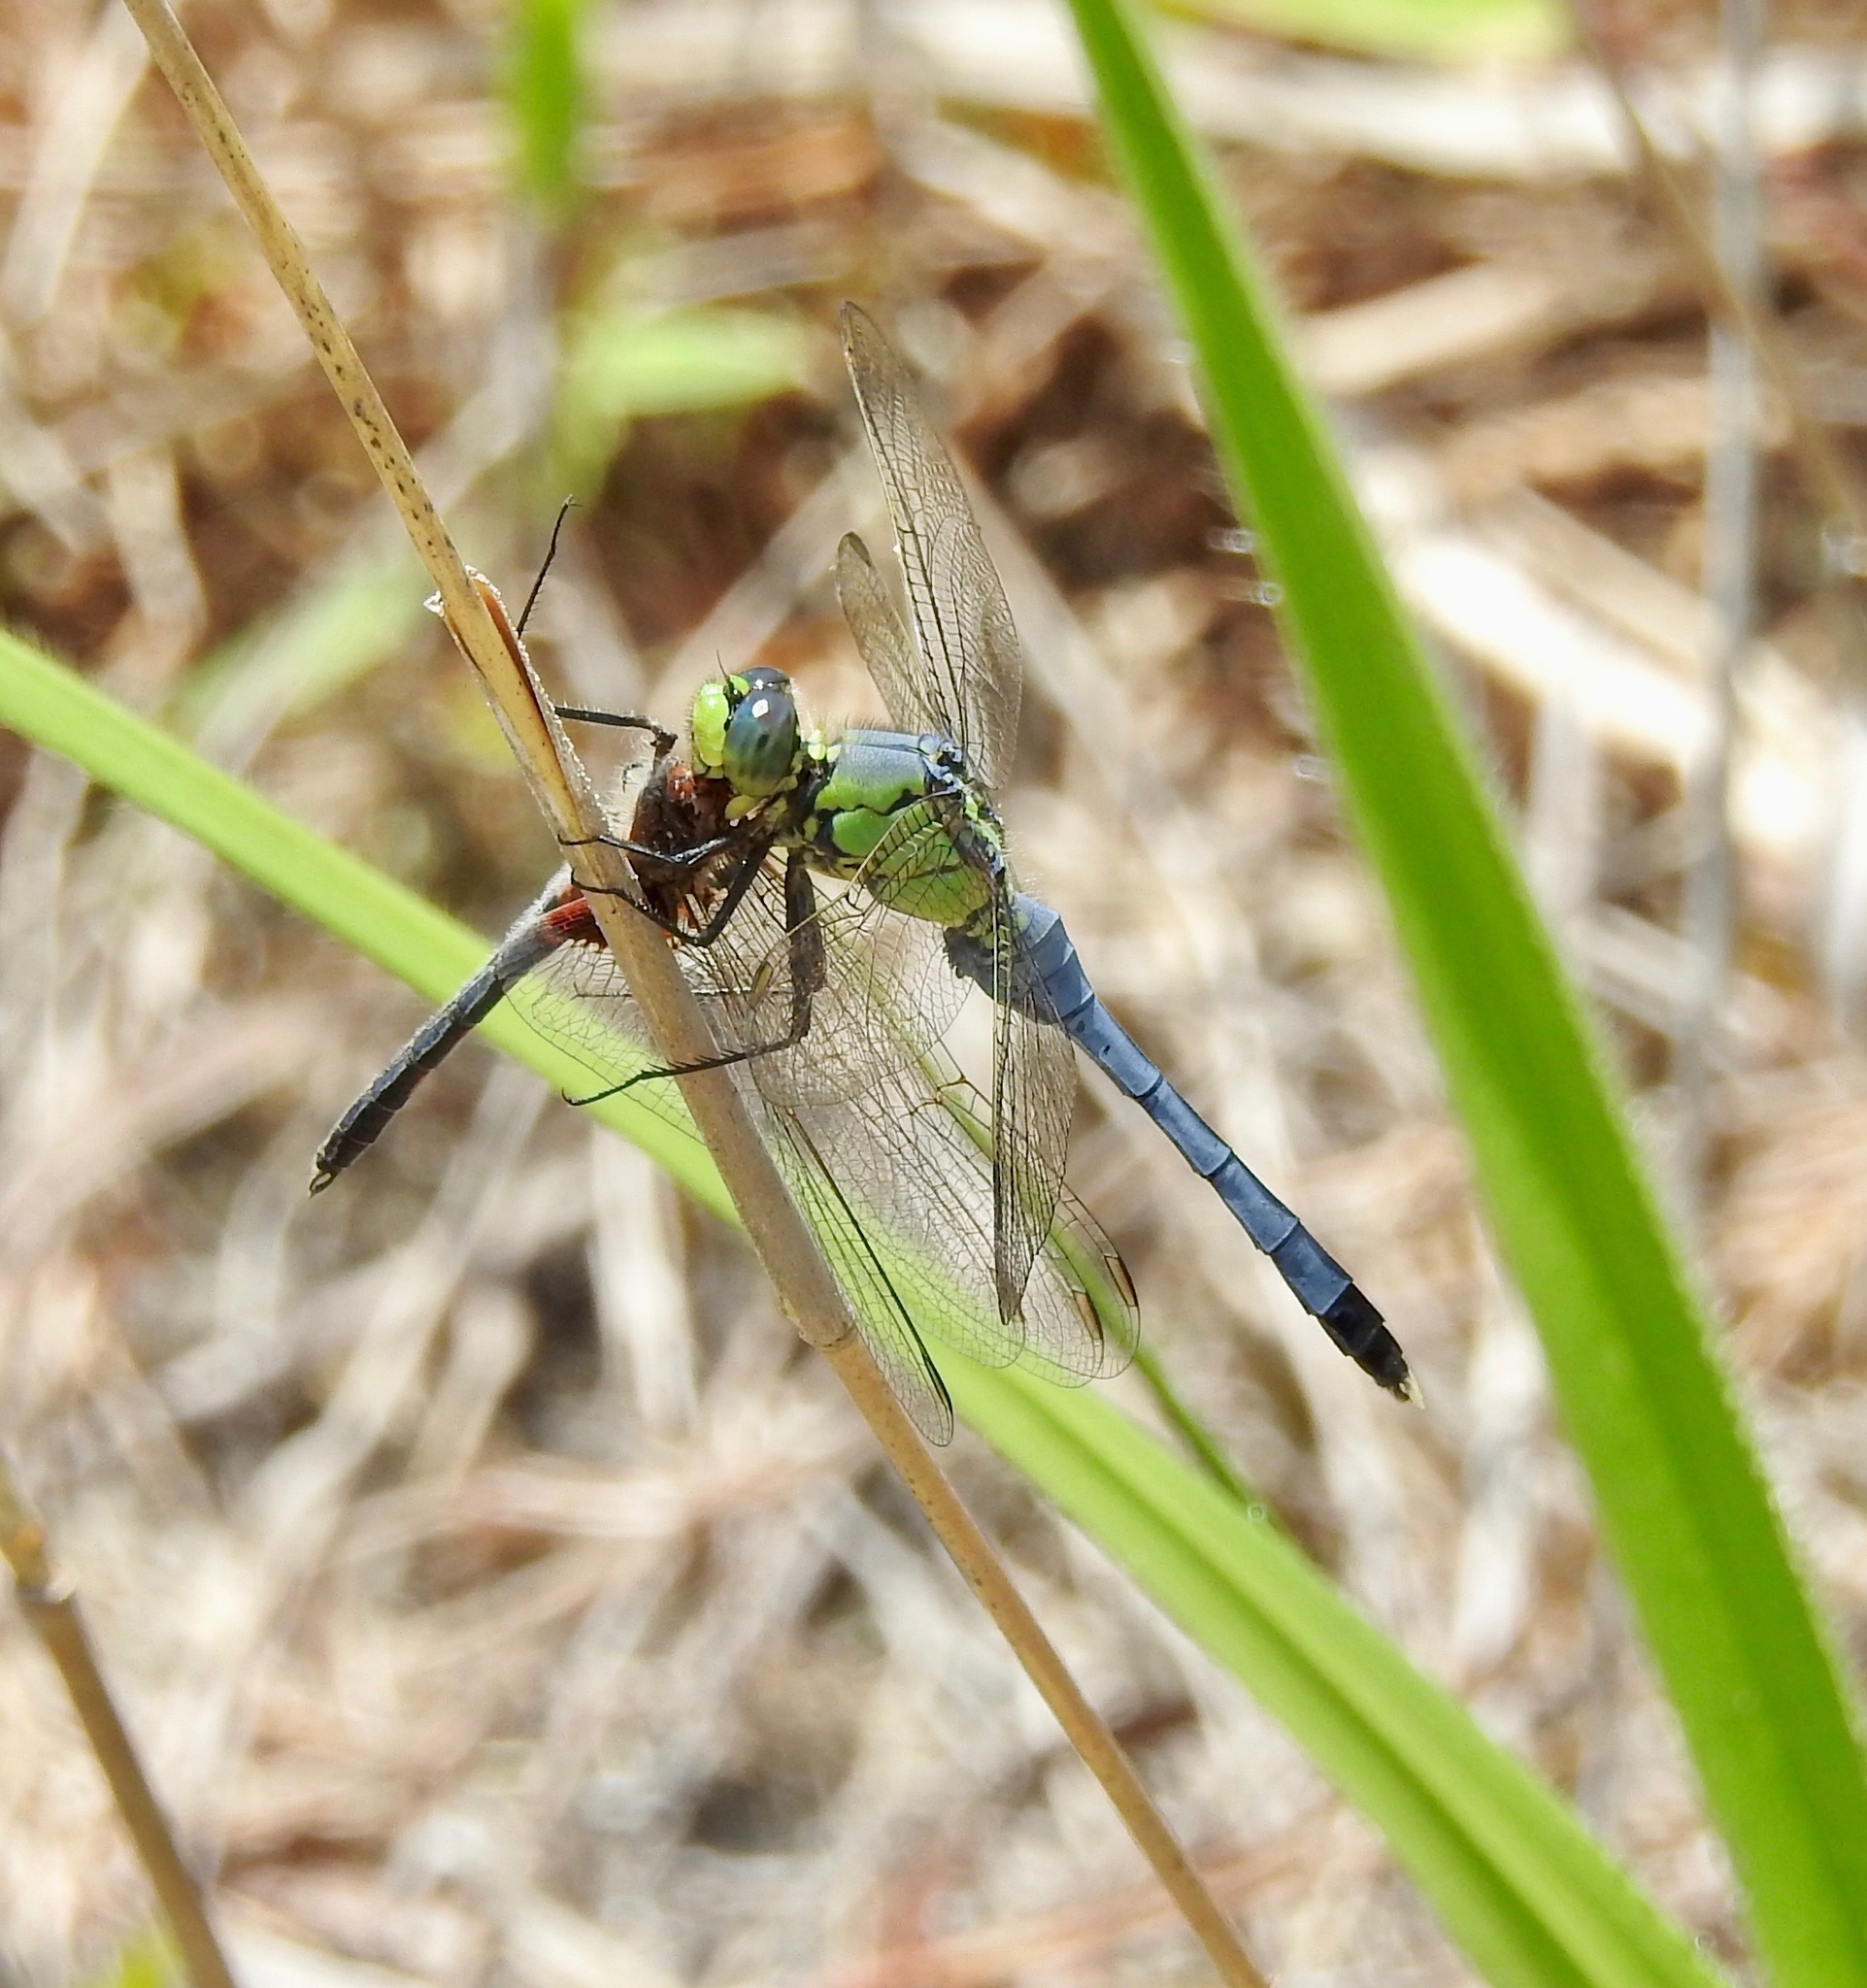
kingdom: Animalia
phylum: Arthropoda
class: Insecta
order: Odonata
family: Libellulidae
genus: Erythemis
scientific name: Erythemis simplicicollis
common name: Eastern pondhawk
